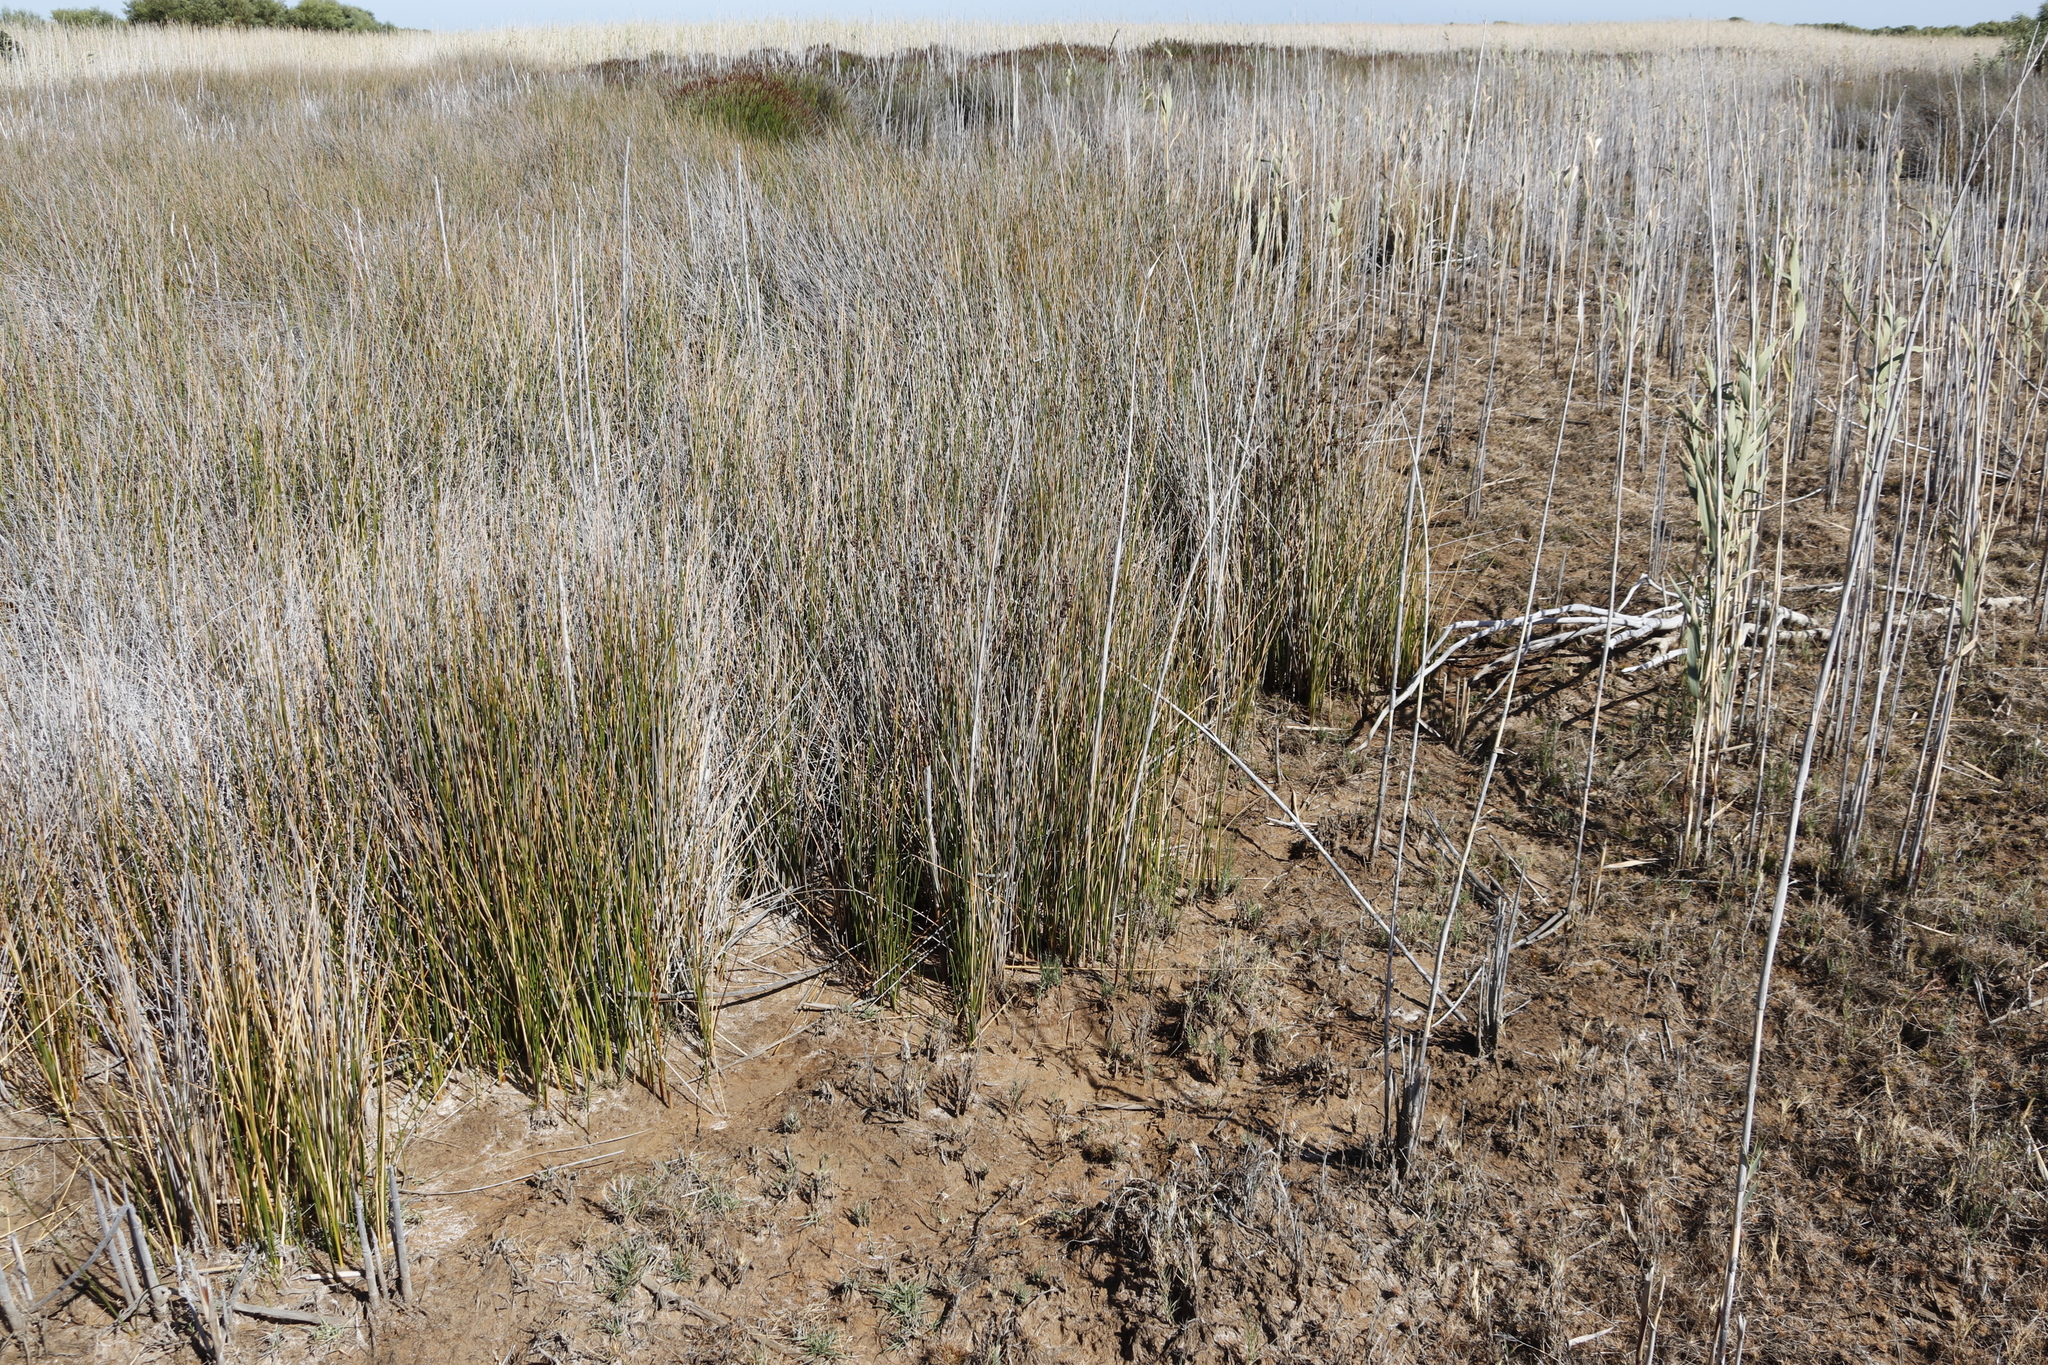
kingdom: Plantae
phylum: Tracheophyta
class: Liliopsida
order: Poales
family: Juncaceae
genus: Juncus
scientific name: Juncus kraussii
